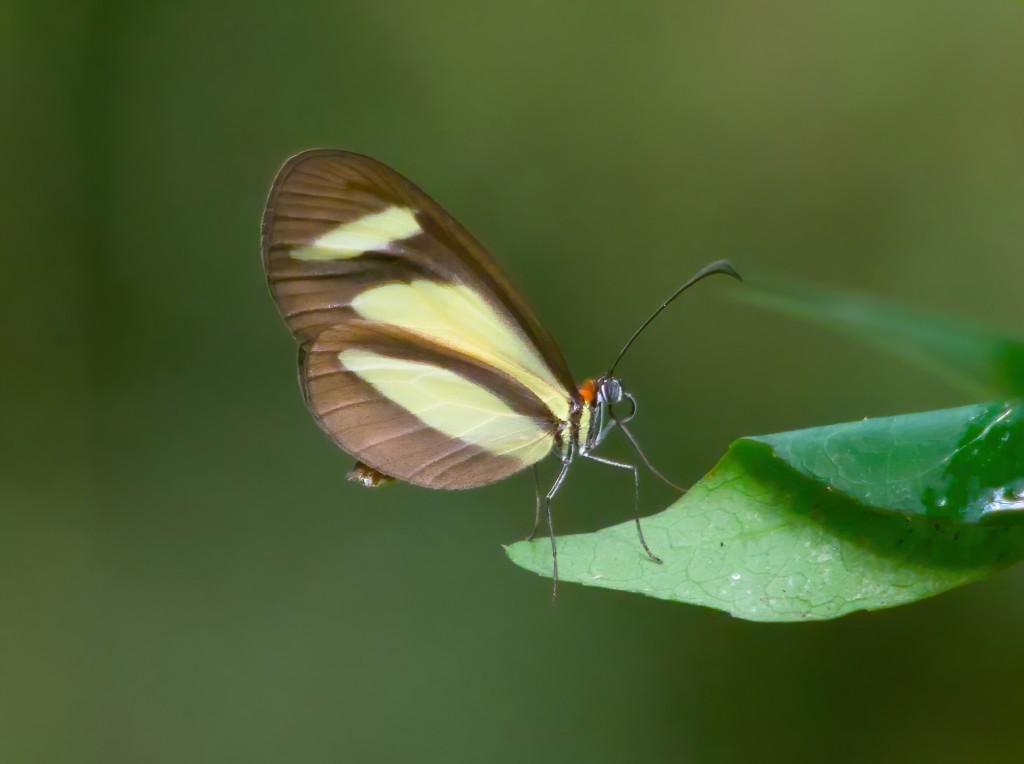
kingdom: Animalia
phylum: Arthropoda
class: Insecta
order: Lepidoptera
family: Nymphalidae
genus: Aeria
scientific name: Aeria olena
